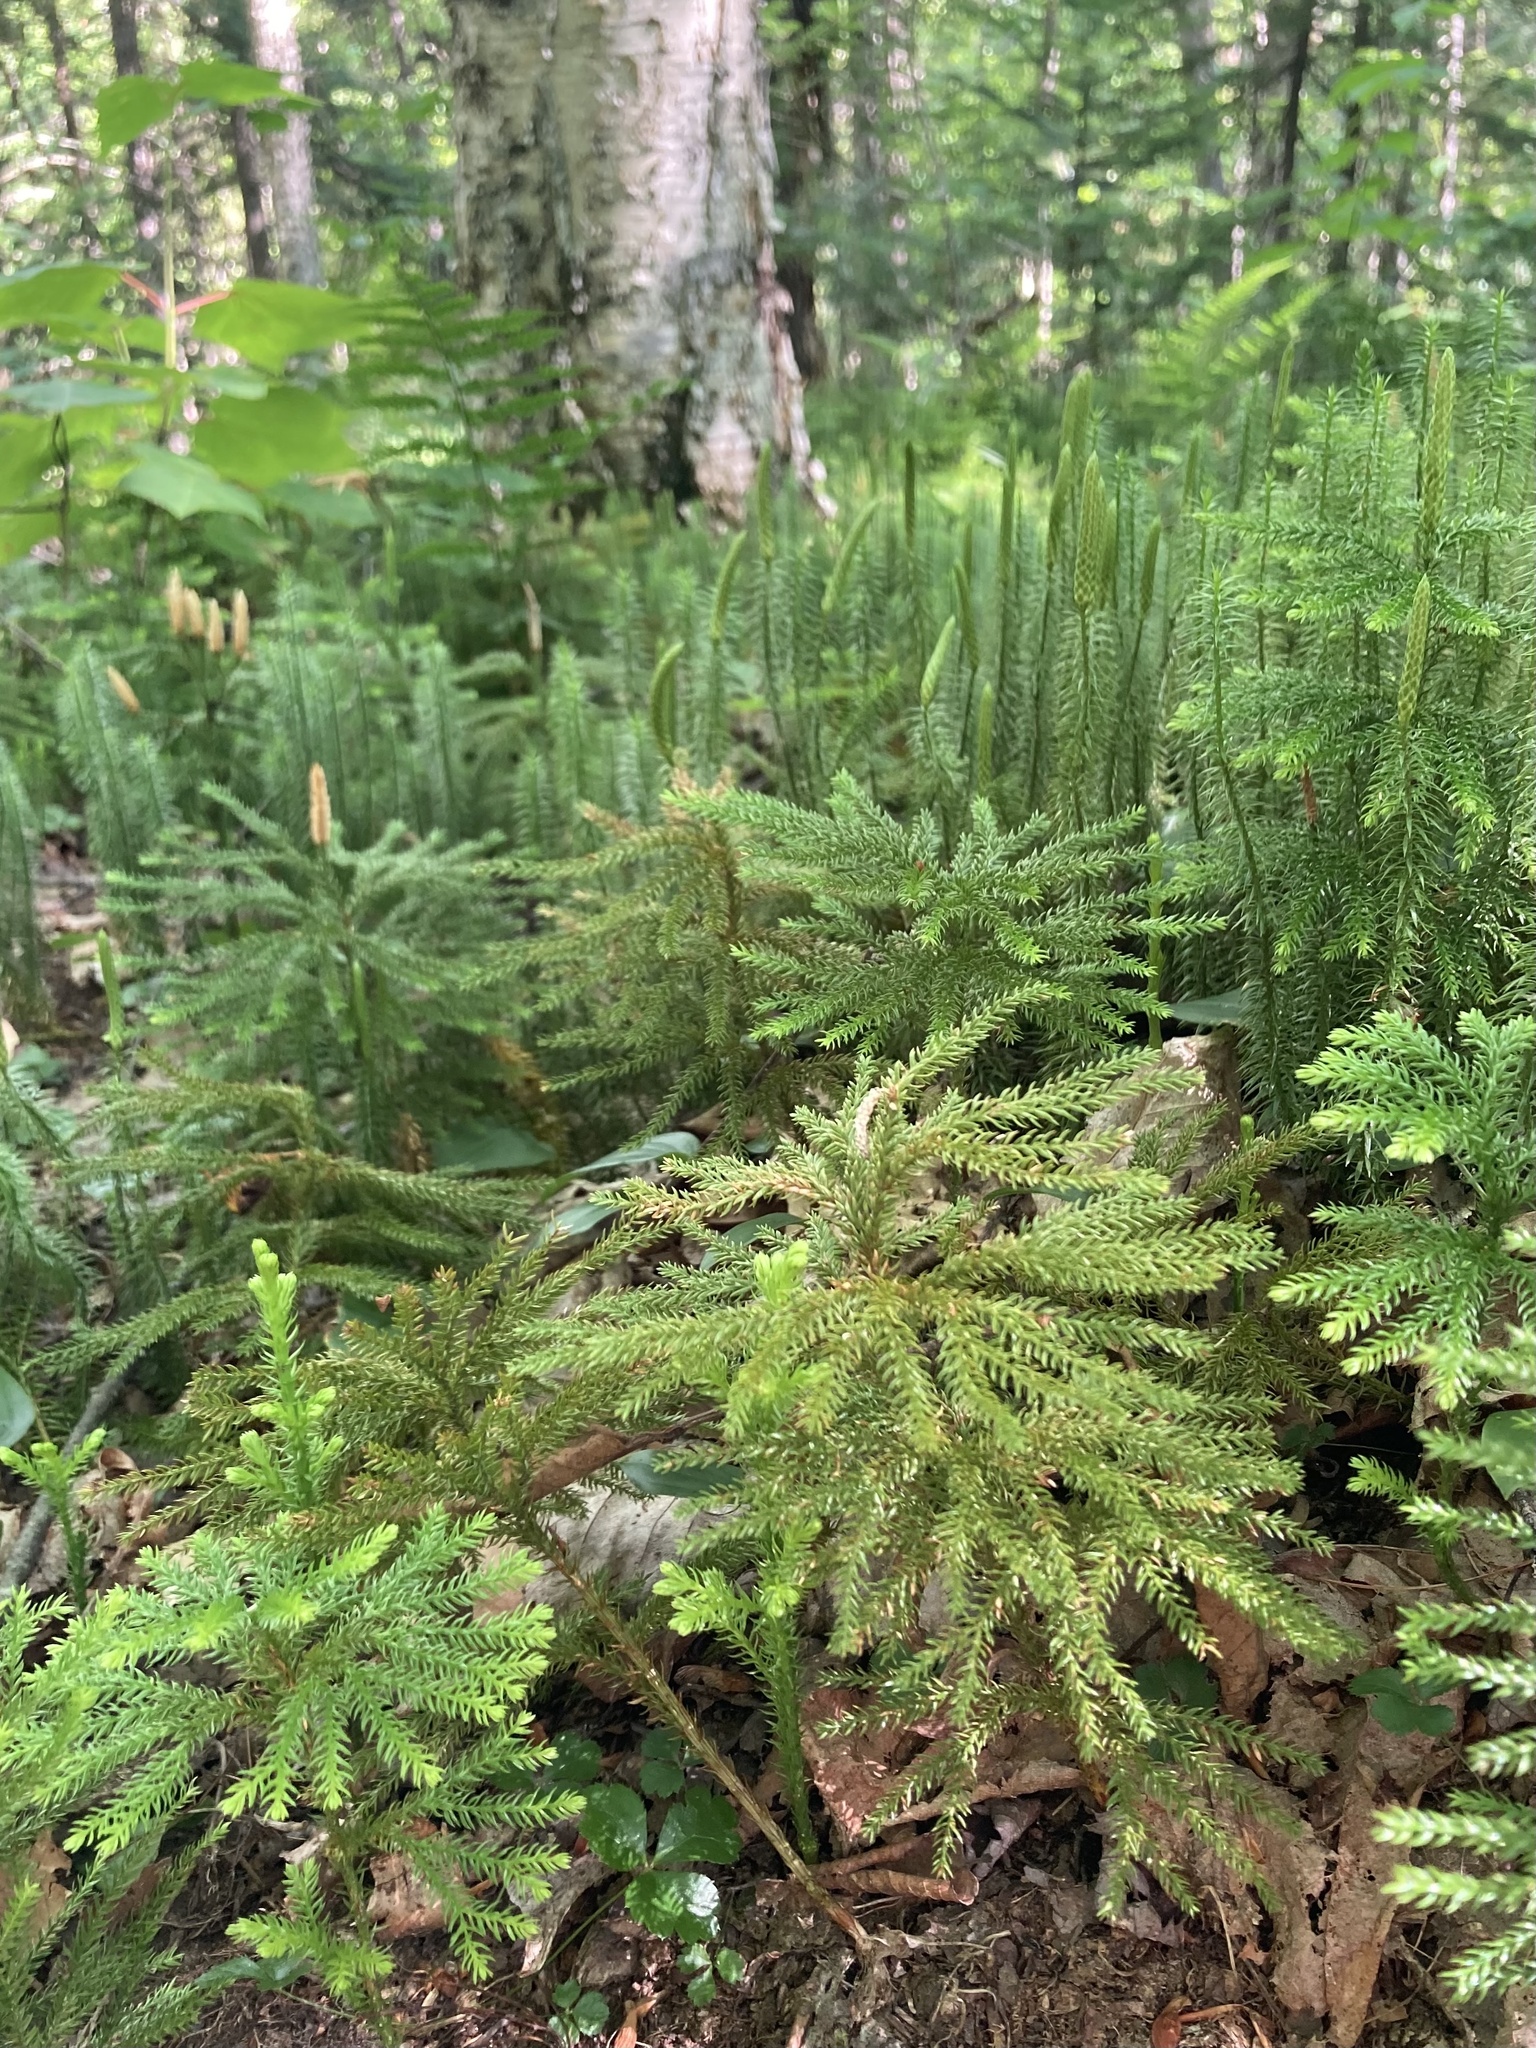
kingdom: Plantae
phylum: Tracheophyta
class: Lycopodiopsida
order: Lycopodiales
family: Lycopodiaceae
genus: Dendrolycopodium
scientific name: Dendrolycopodium dendroideum
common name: Northern tree-clubmoss
